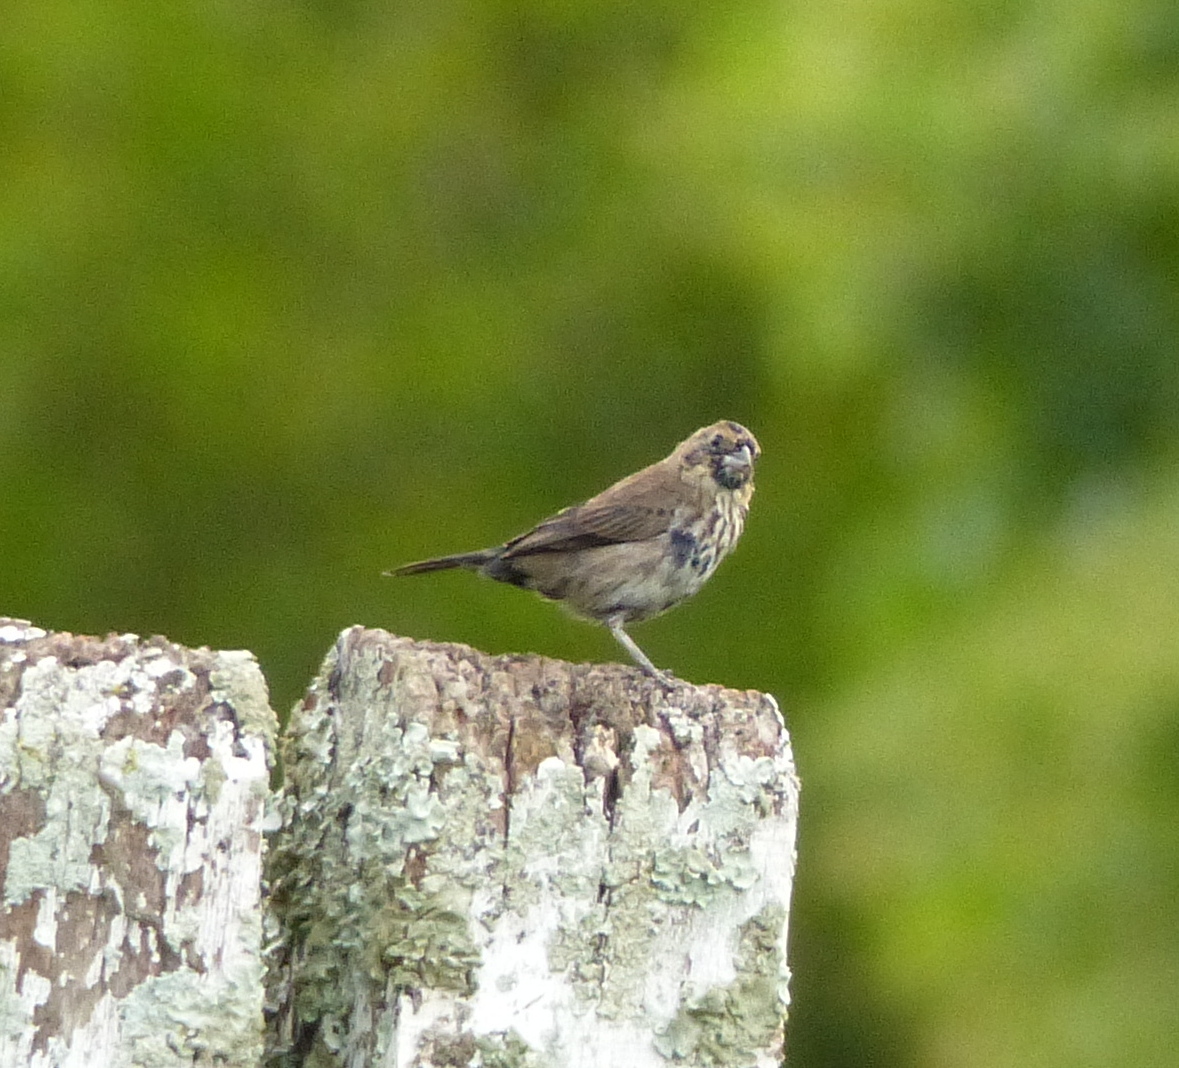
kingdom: Animalia
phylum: Chordata
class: Aves
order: Passeriformes
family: Thraupidae
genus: Volatinia
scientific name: Volatinia jacarina
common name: Blue-black grassquit
